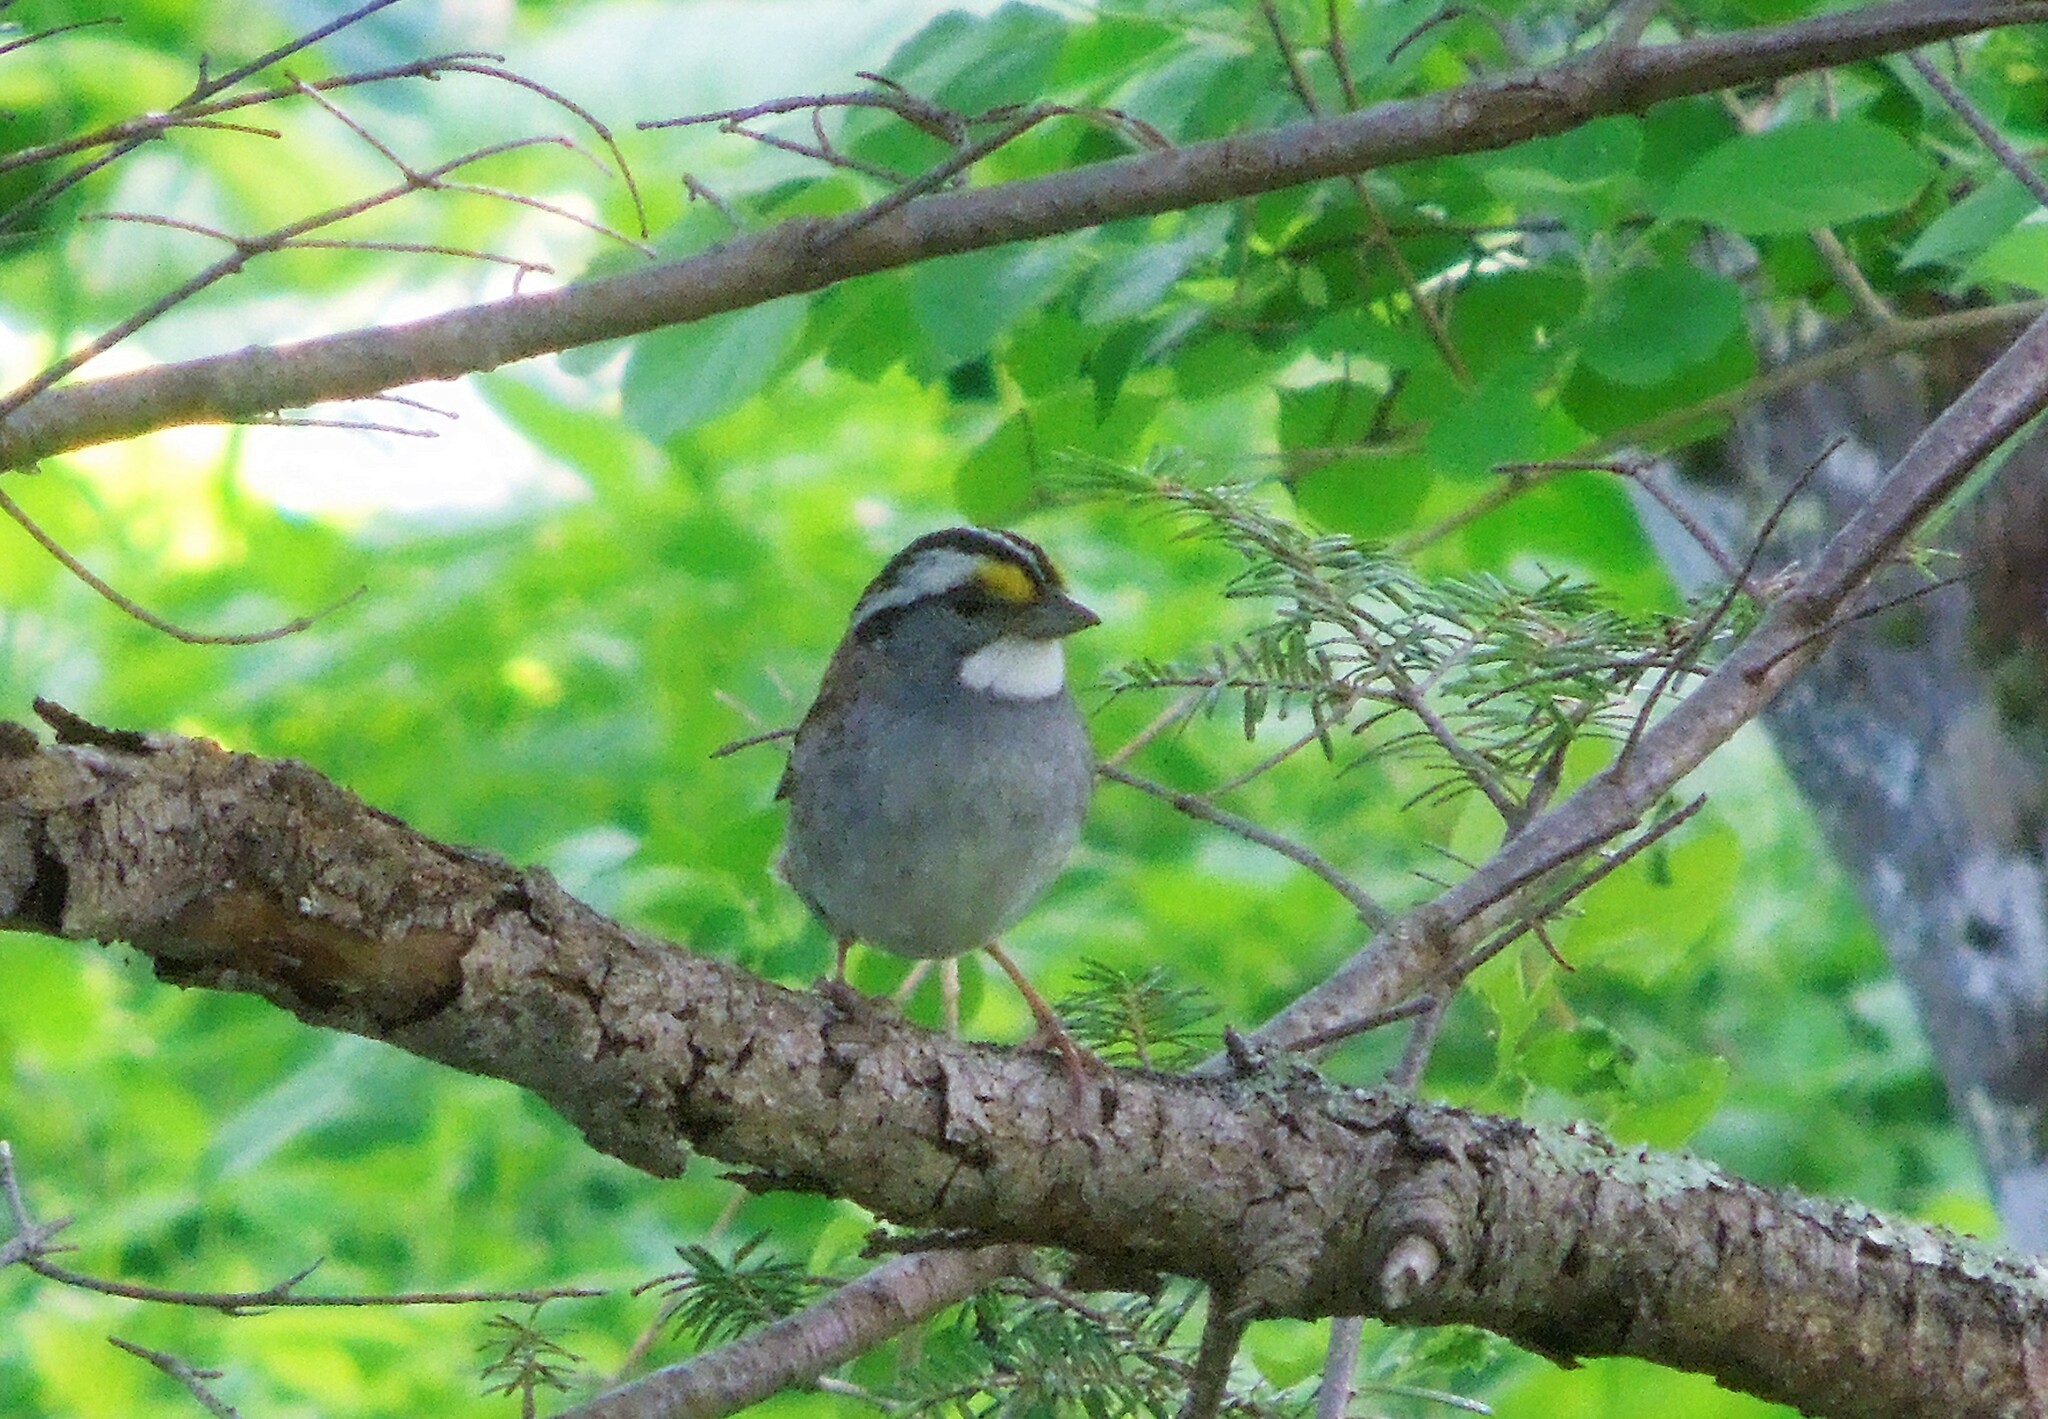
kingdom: Animalia
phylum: Chordata
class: Aves
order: Passeriformes
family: Passerellidae
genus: Zonotrichia
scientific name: Zonotrichia albicollis
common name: White-throated sparrow
